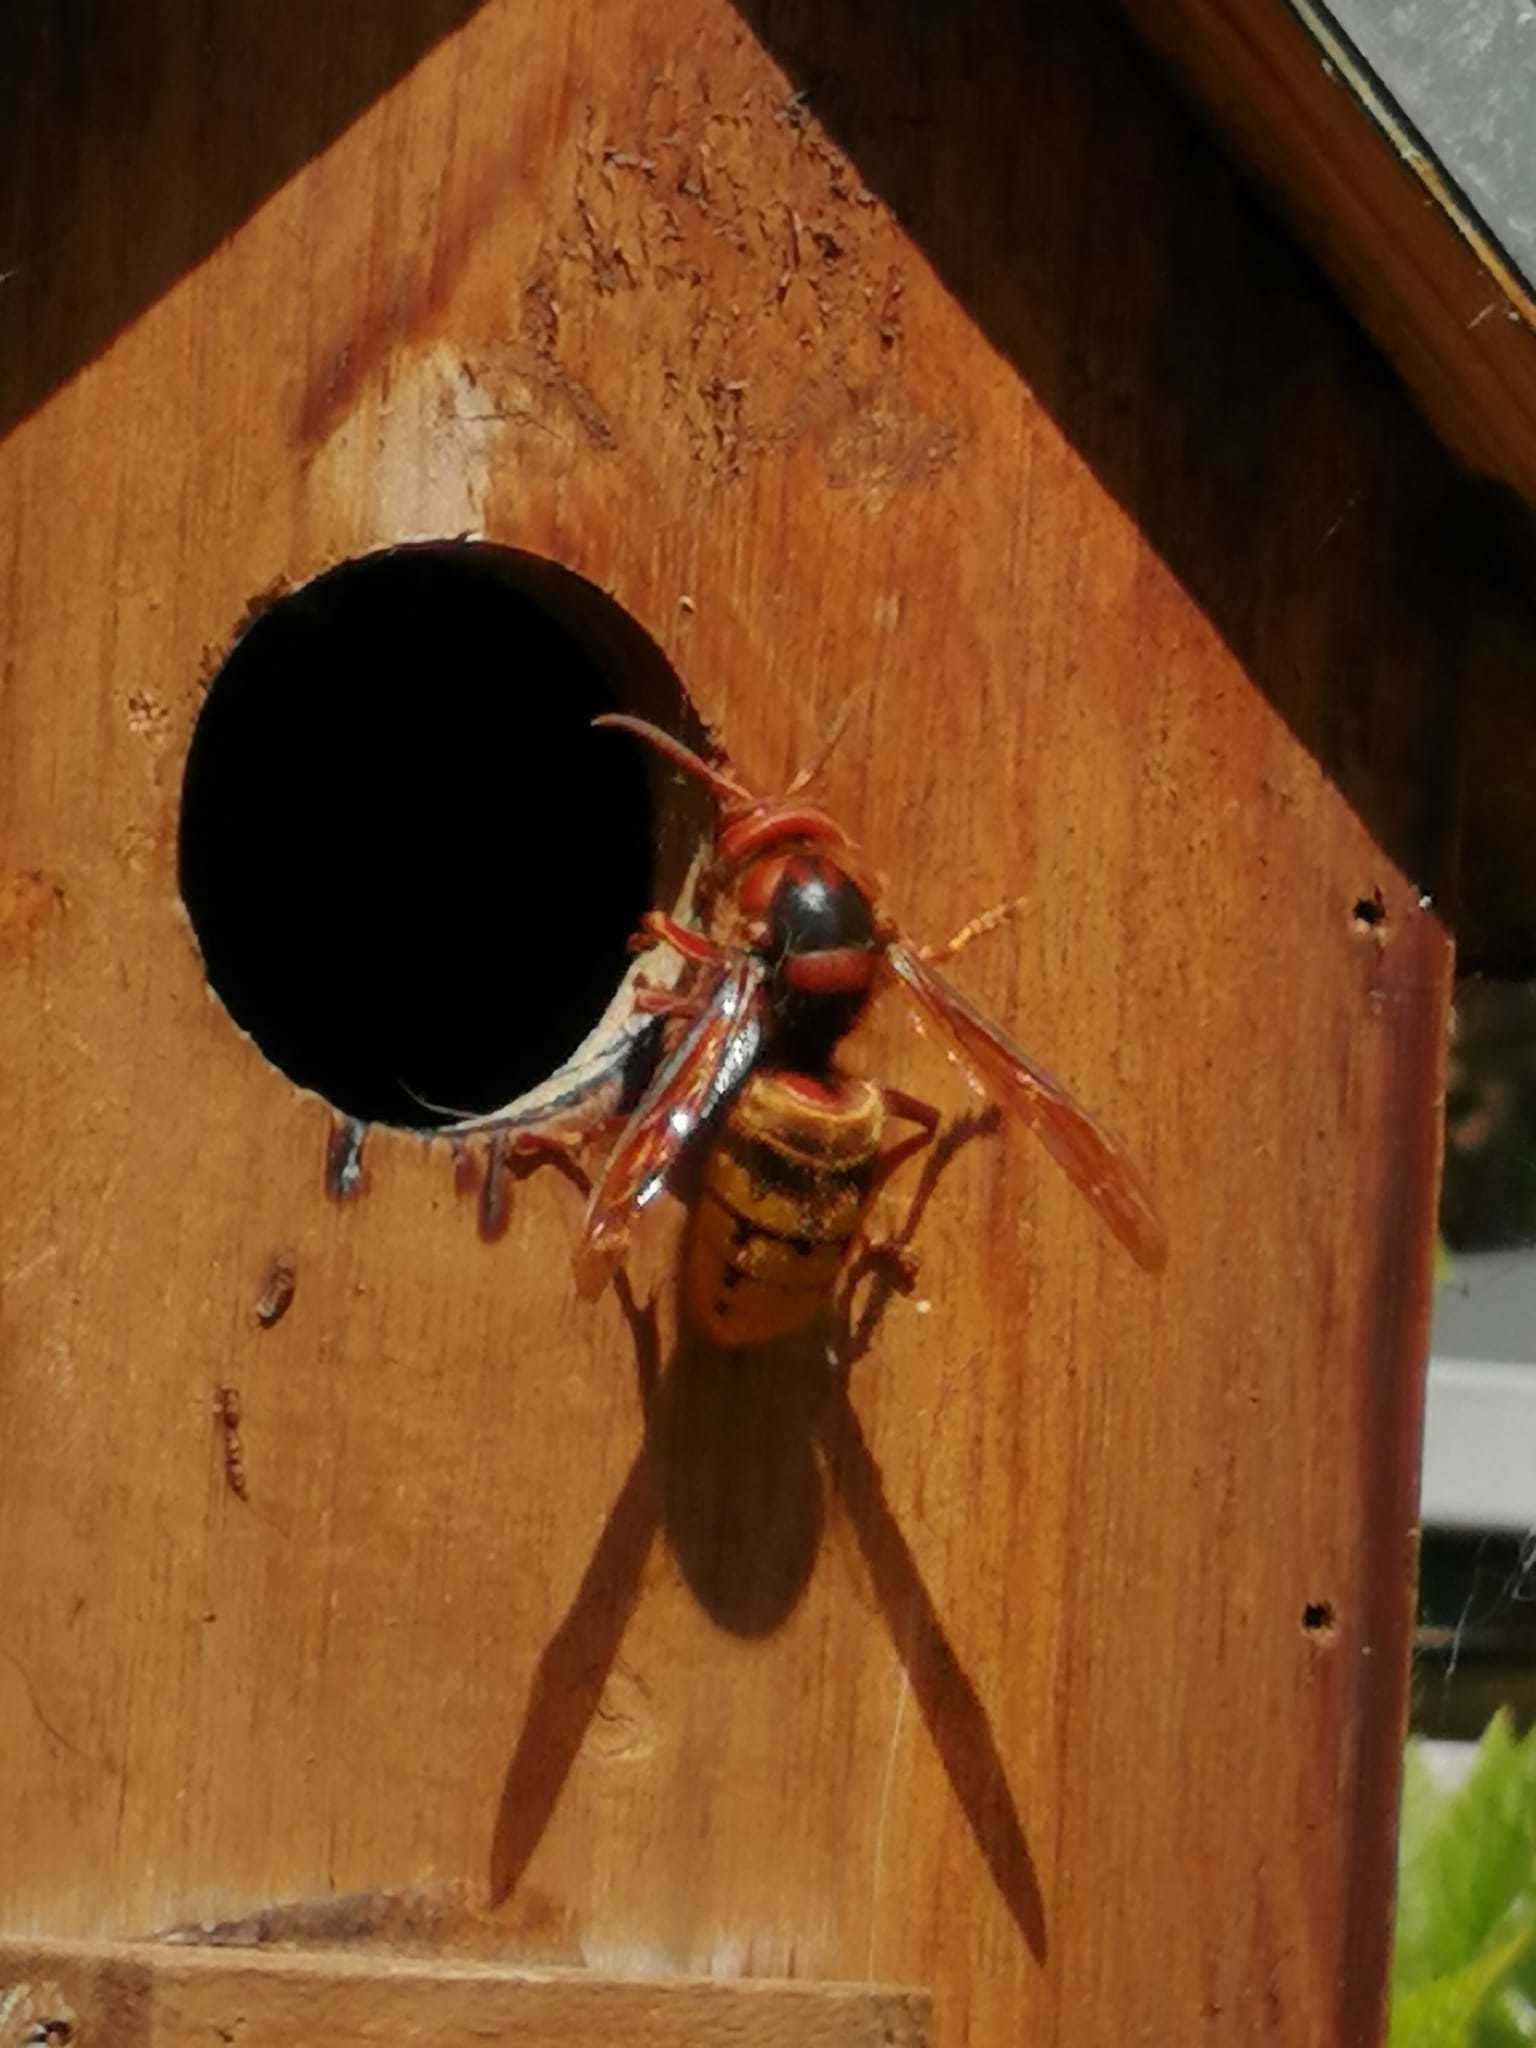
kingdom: Animalia
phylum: Arthropoda
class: Insecta
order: Hymenoptera
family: Vespidae
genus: Vespa
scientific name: Vespa crabro
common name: Hornet
